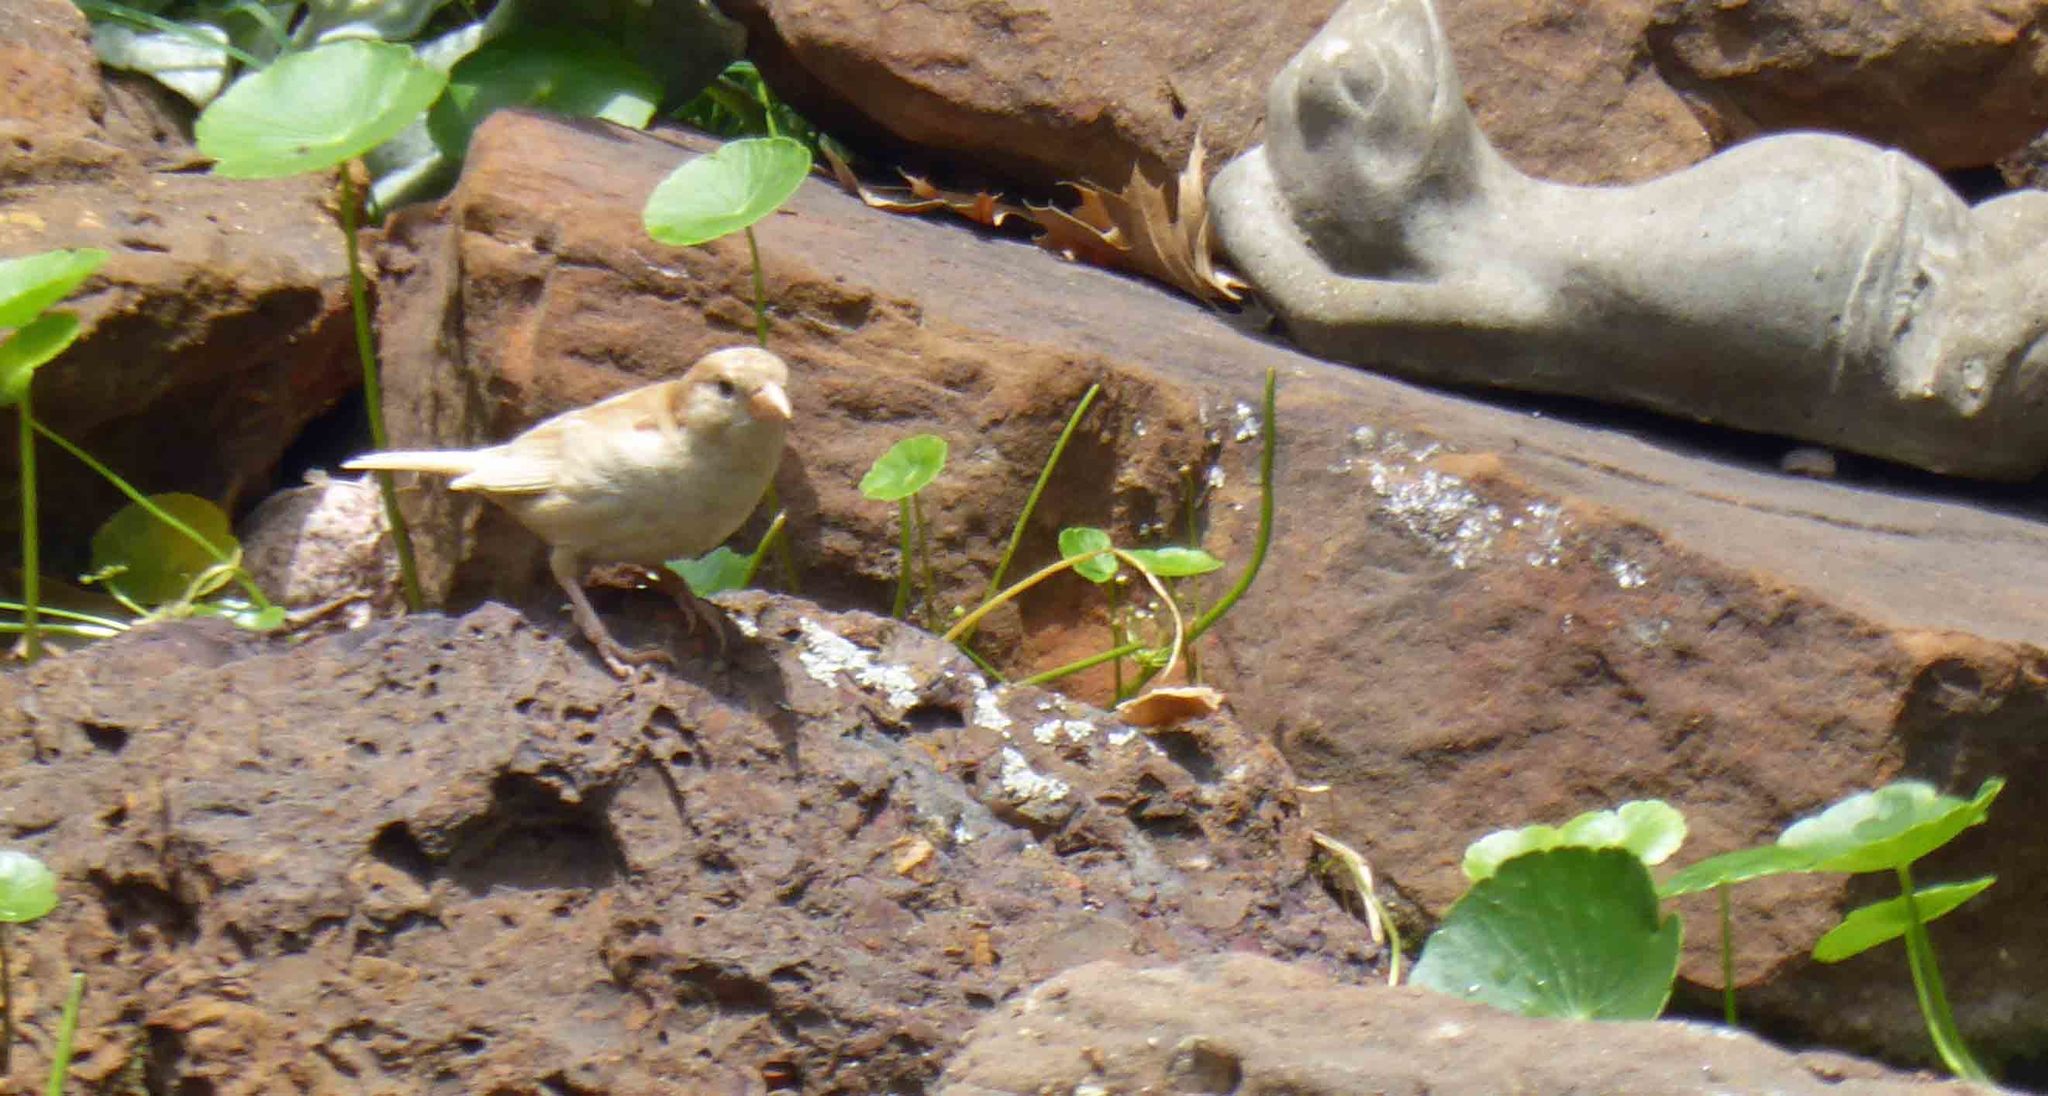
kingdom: Animalia
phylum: Chordata
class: Aves
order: Passeriformes
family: Passeridae
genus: Passer
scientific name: Passer domesticus
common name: House sparrow
